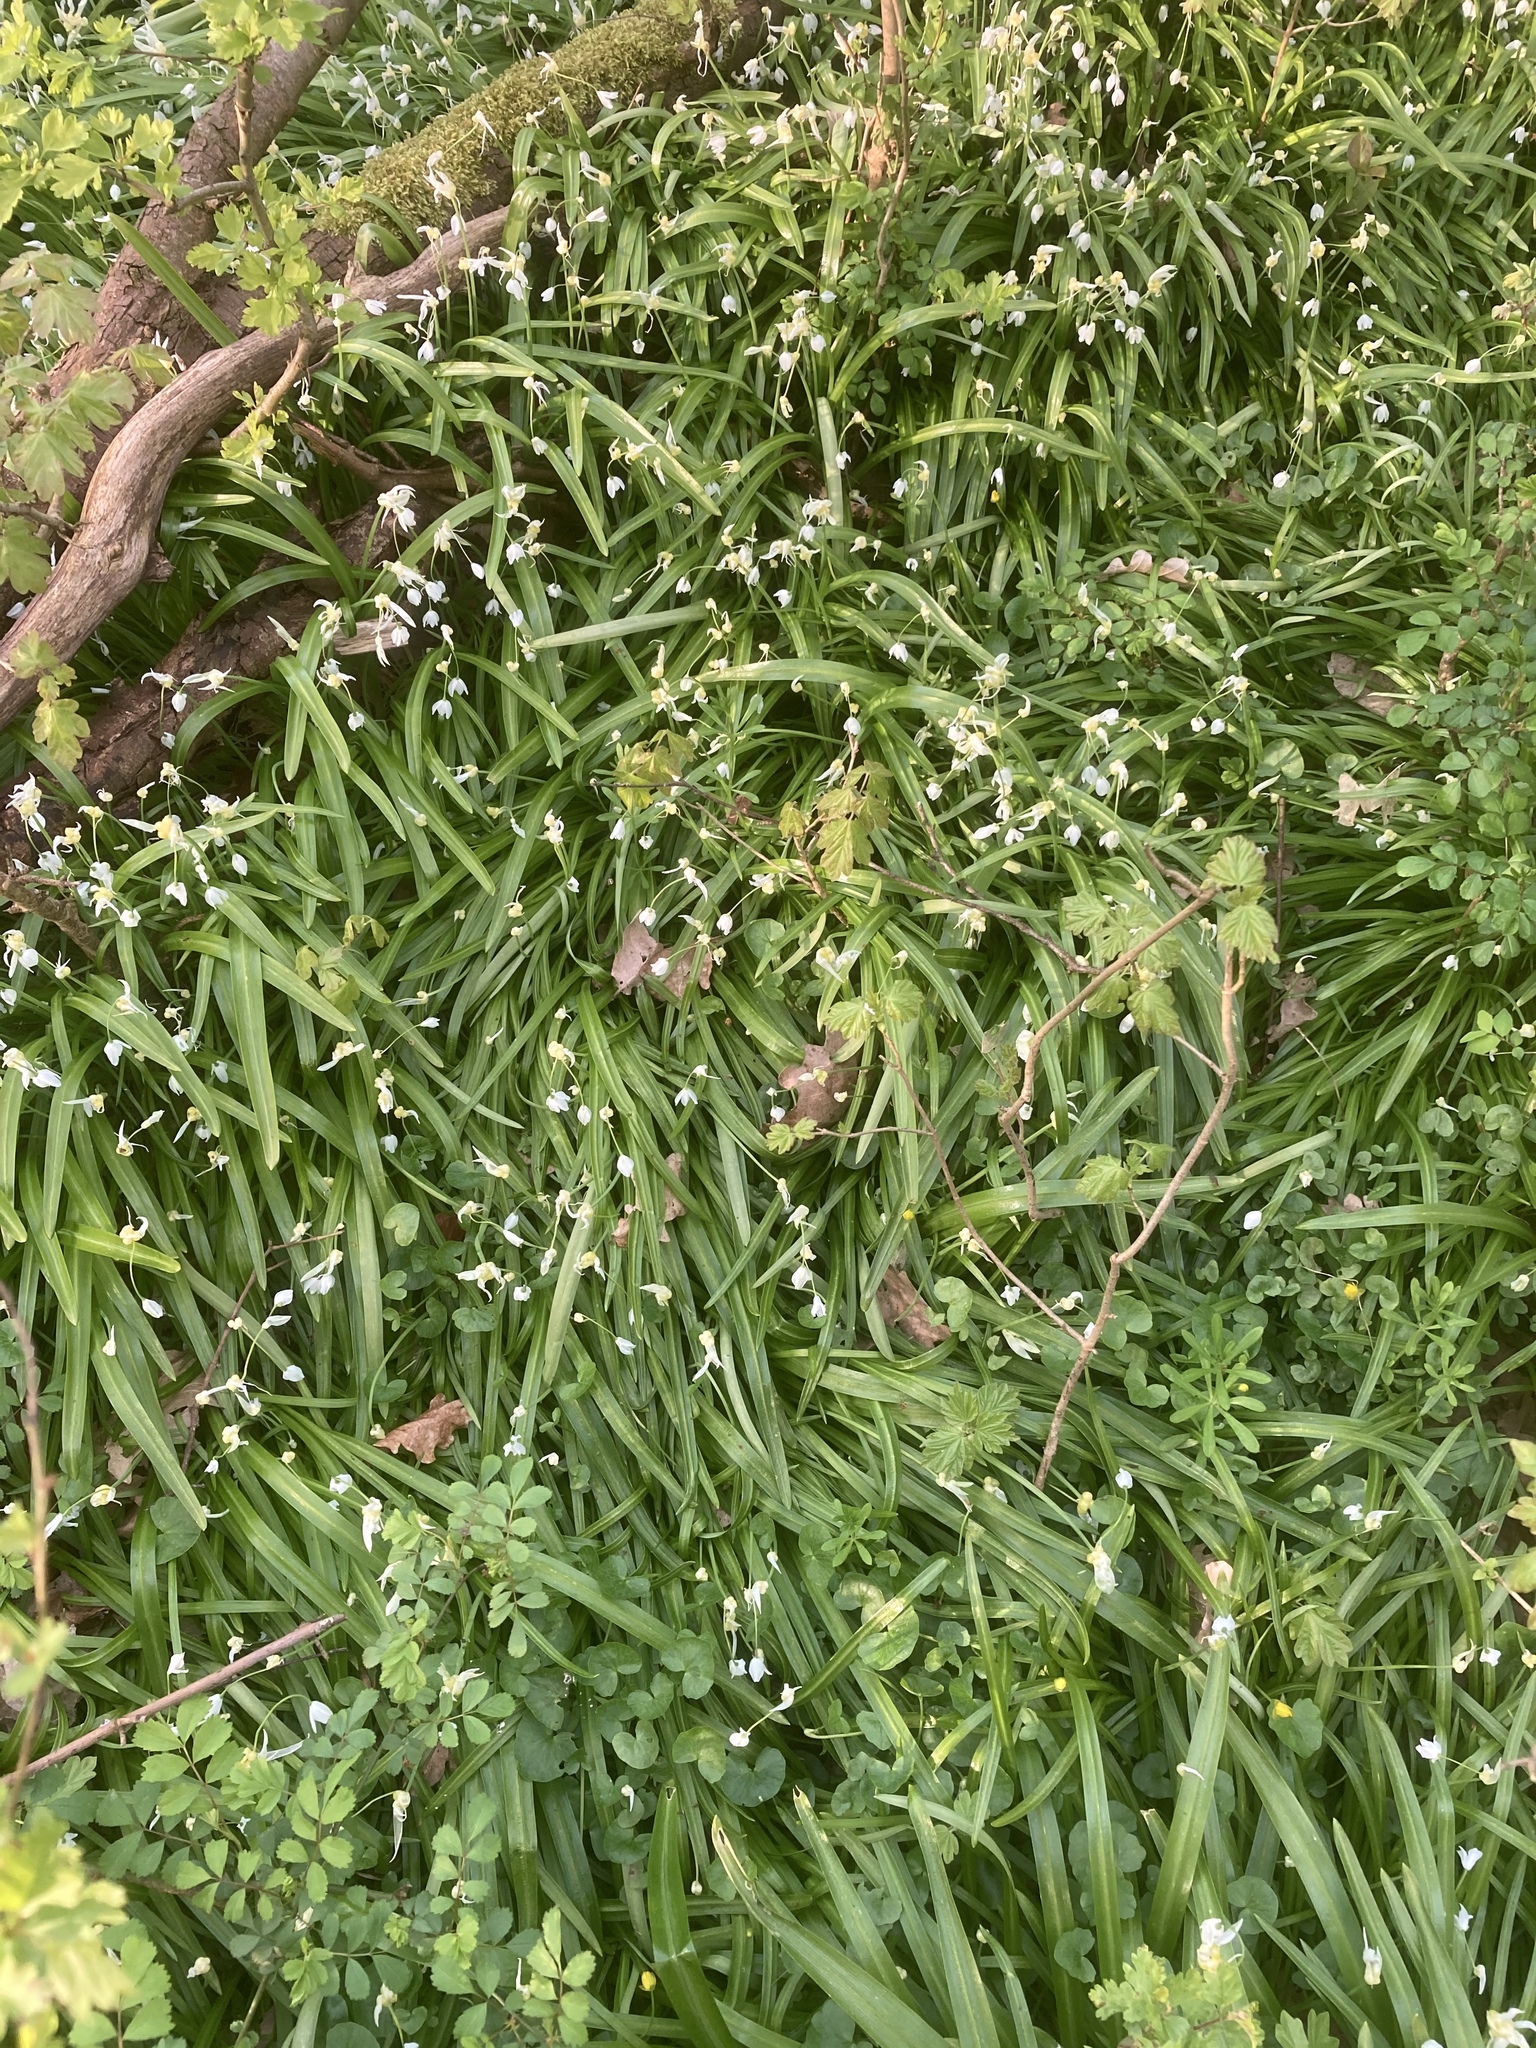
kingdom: Plantae
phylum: Tracheophyta
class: Liliopsida
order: Asparagales
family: Amaryllidaceae
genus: Allium
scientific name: Allium paradoxum
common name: Few-flowered garlic
